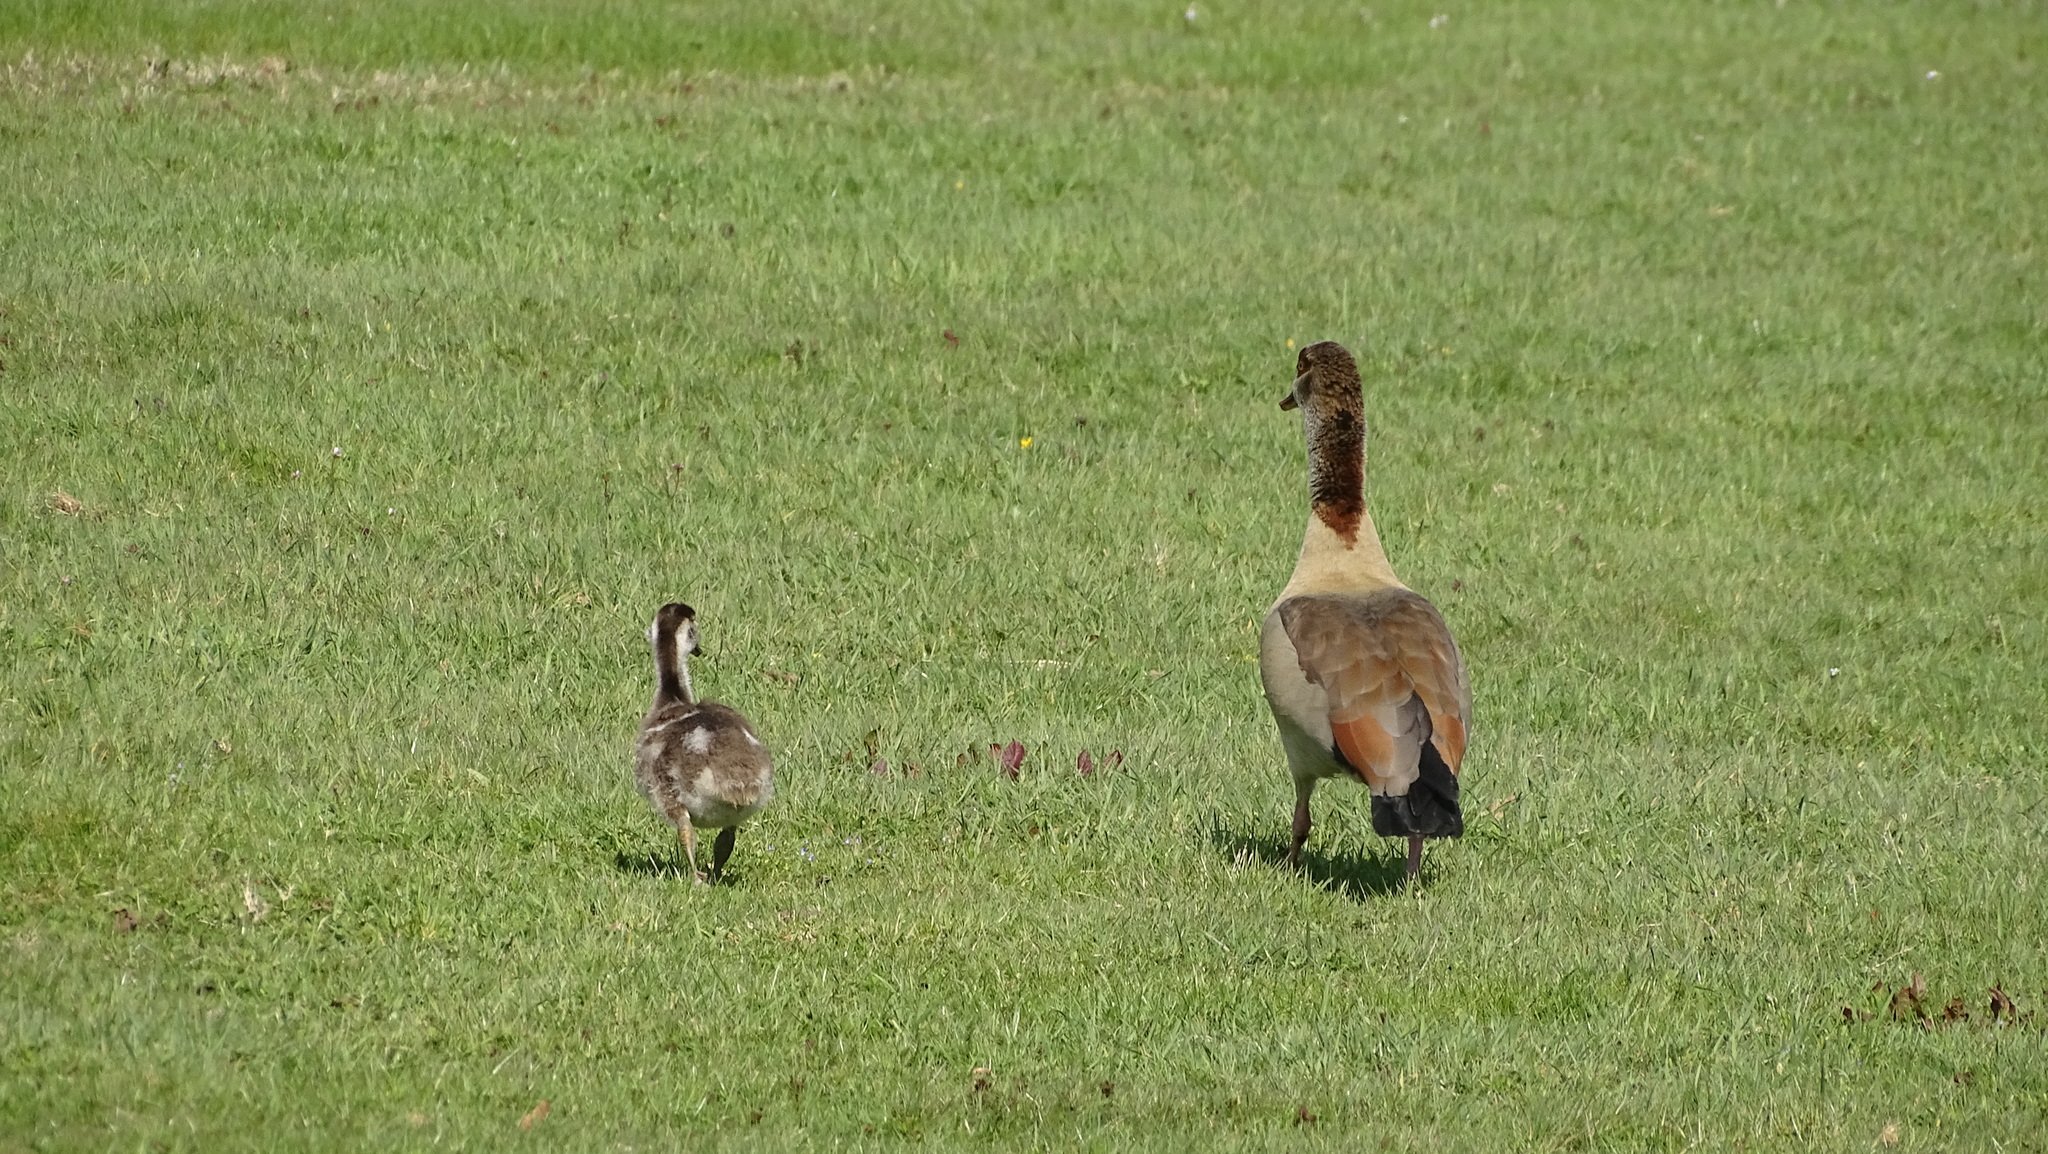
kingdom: Animalia
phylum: Chordata
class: Aves
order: Anseriformes
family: Anatidae
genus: Alopochen
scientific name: Alopochen aegyptiaca
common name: Egyptian goose
